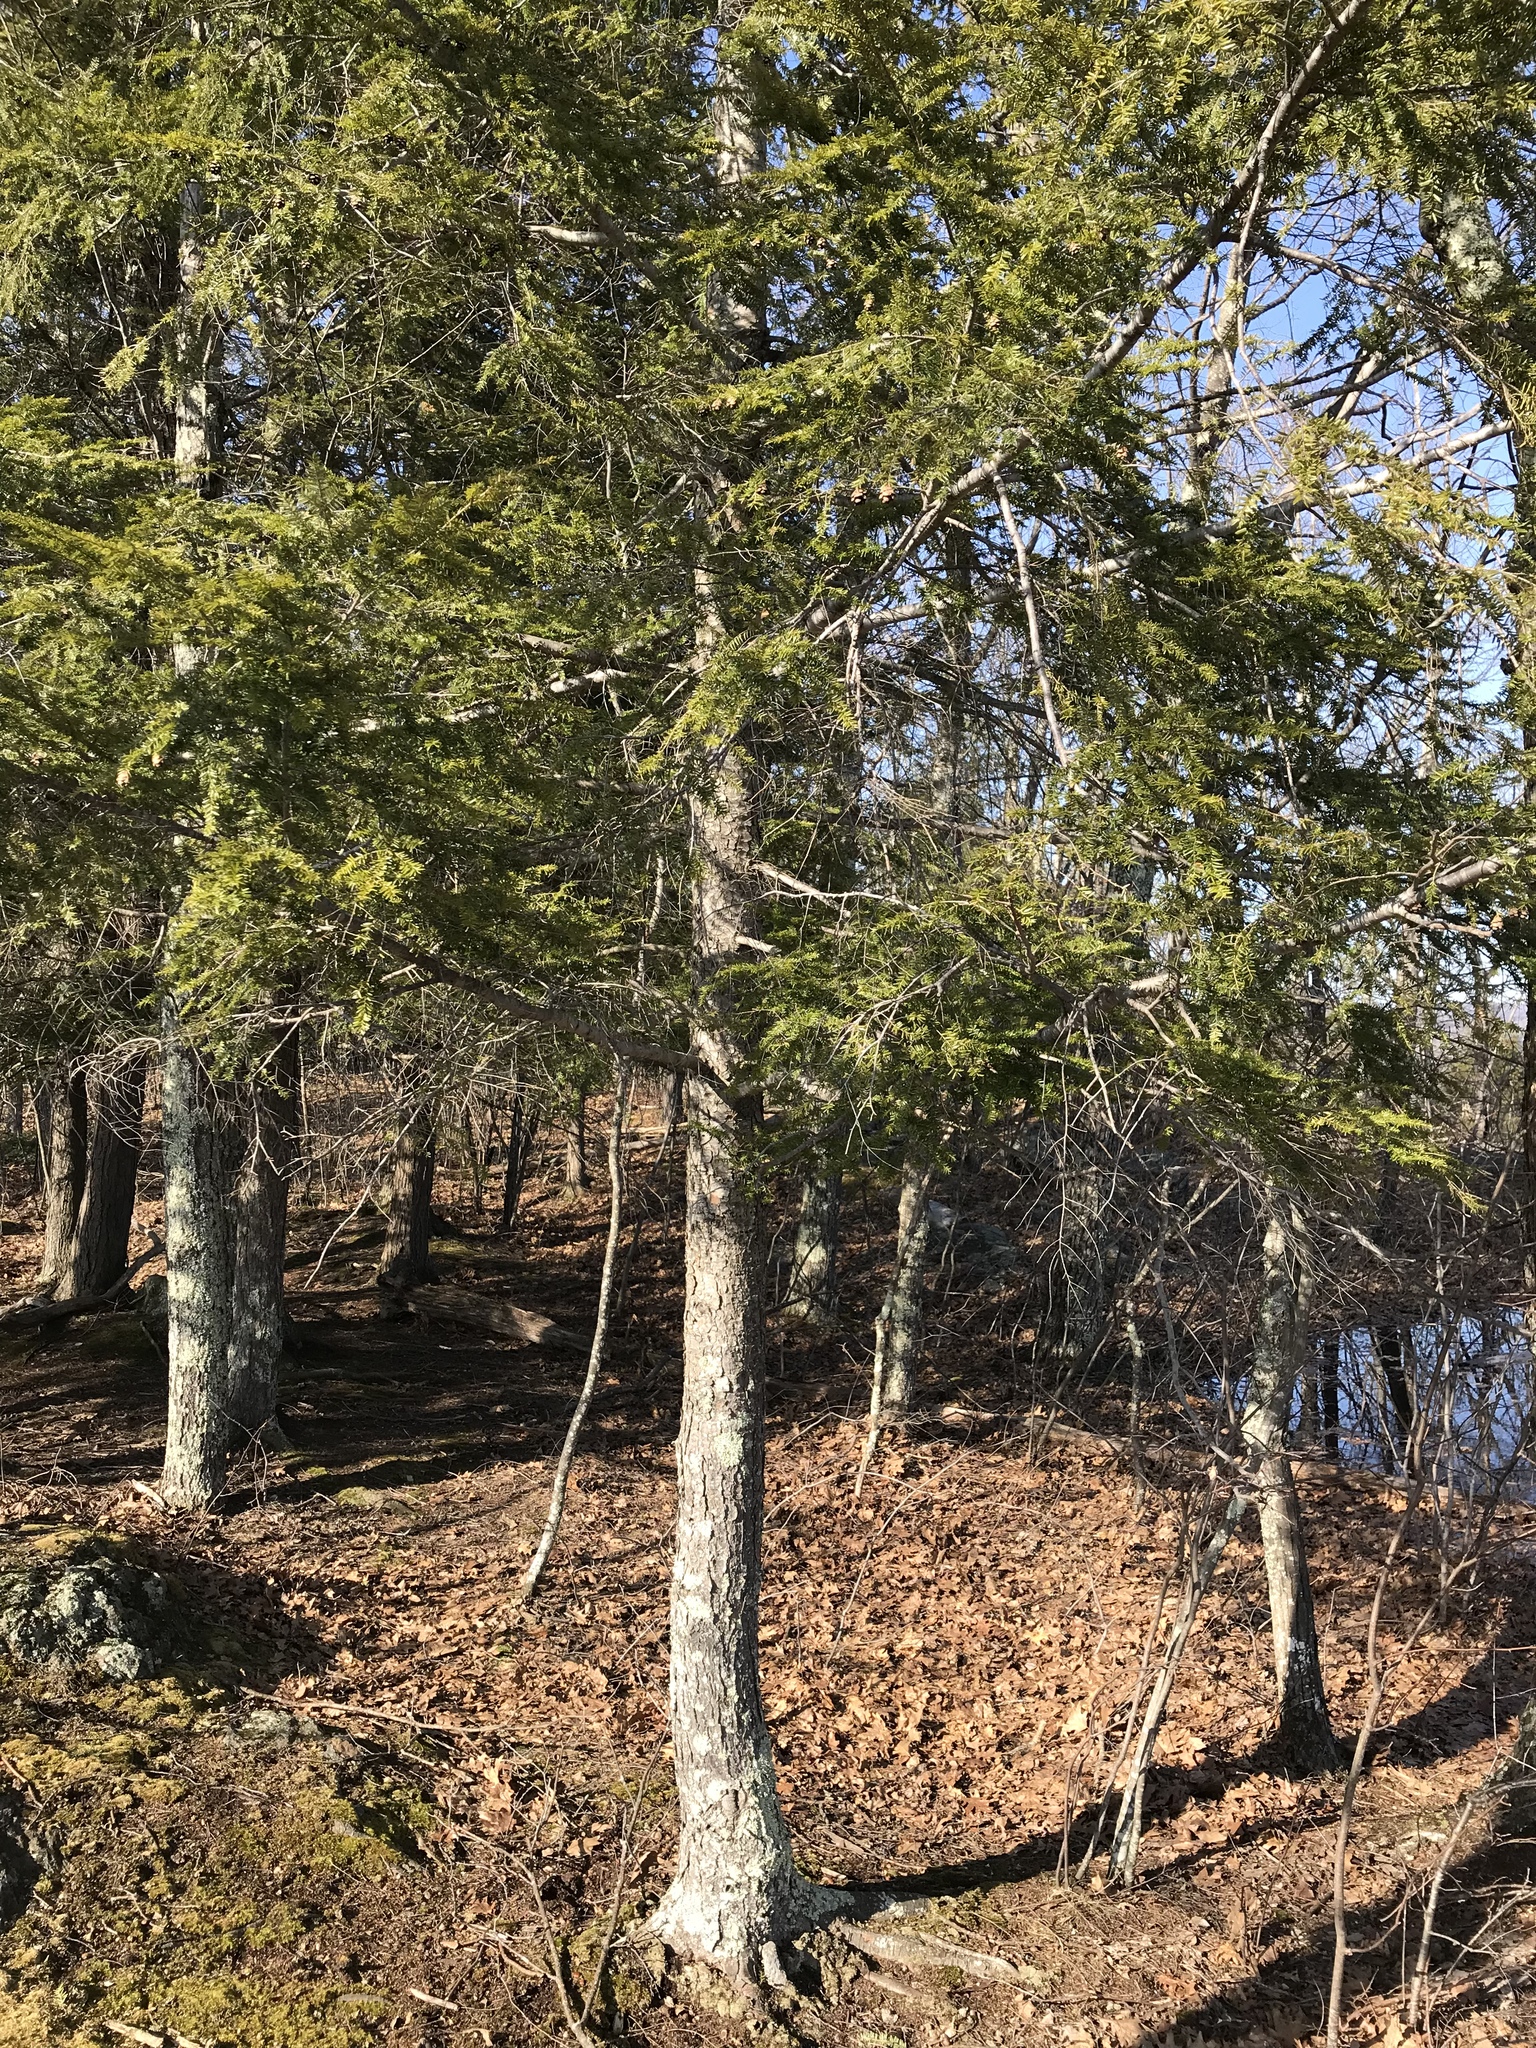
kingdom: Plantae
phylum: Tracheophyta
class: Pinopsida
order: Pinales
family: Pinaceae
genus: Tsuga
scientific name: Tsuga canadensis
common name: Eastern hemlock
